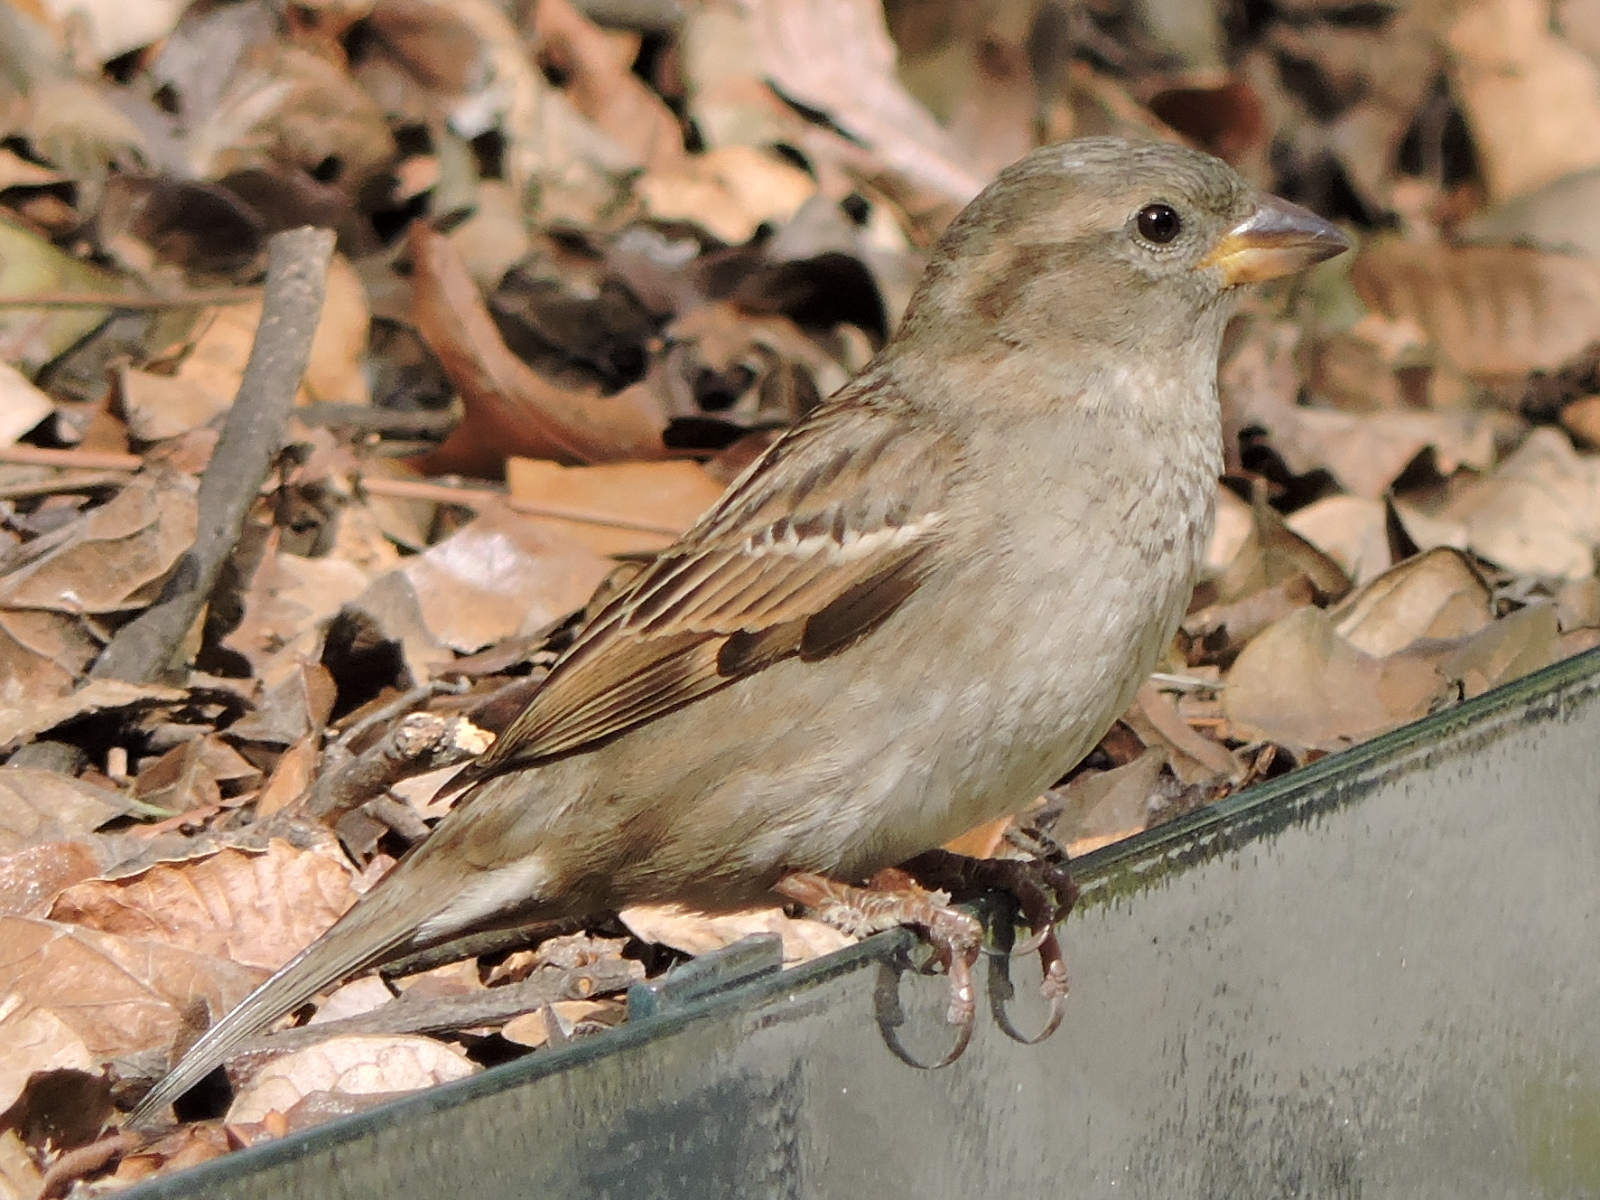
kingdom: Animalia
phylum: Chordata
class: Aves
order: Passeriformes
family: Passeridae
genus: Passer
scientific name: Passer domesticus
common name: House sparrow
